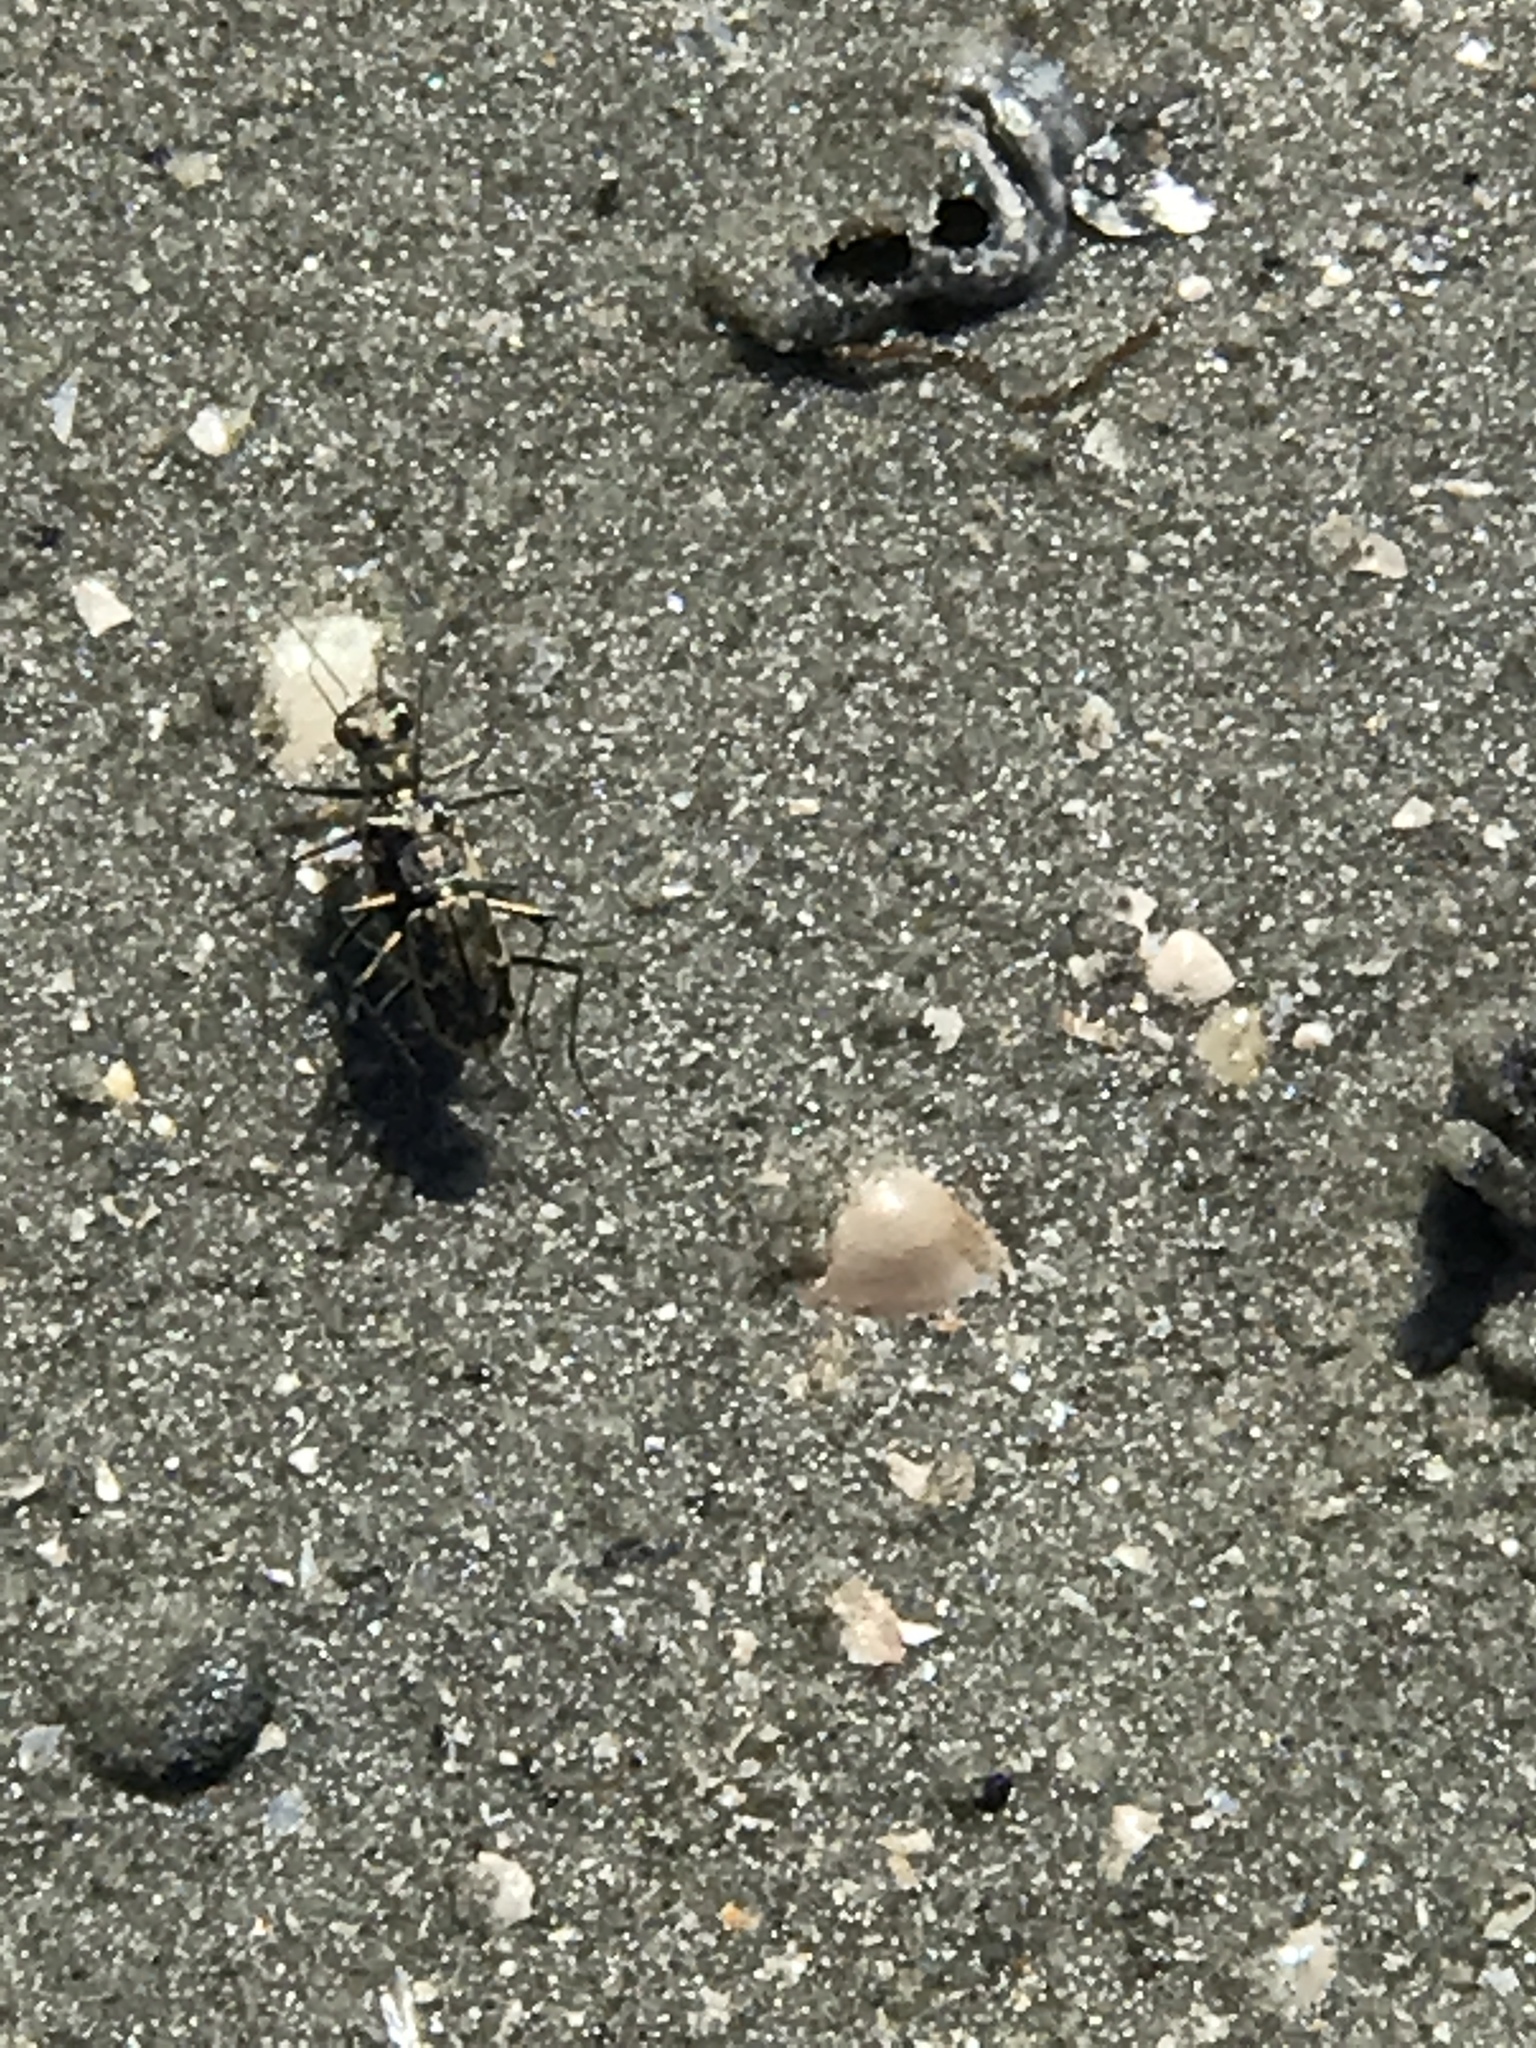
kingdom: Animalia
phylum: Arthropoda
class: Insecta
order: Coleoptera
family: Carabidae
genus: Ellipsoptera
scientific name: Ellipsoptera marginata
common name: Margined tiger beetle
